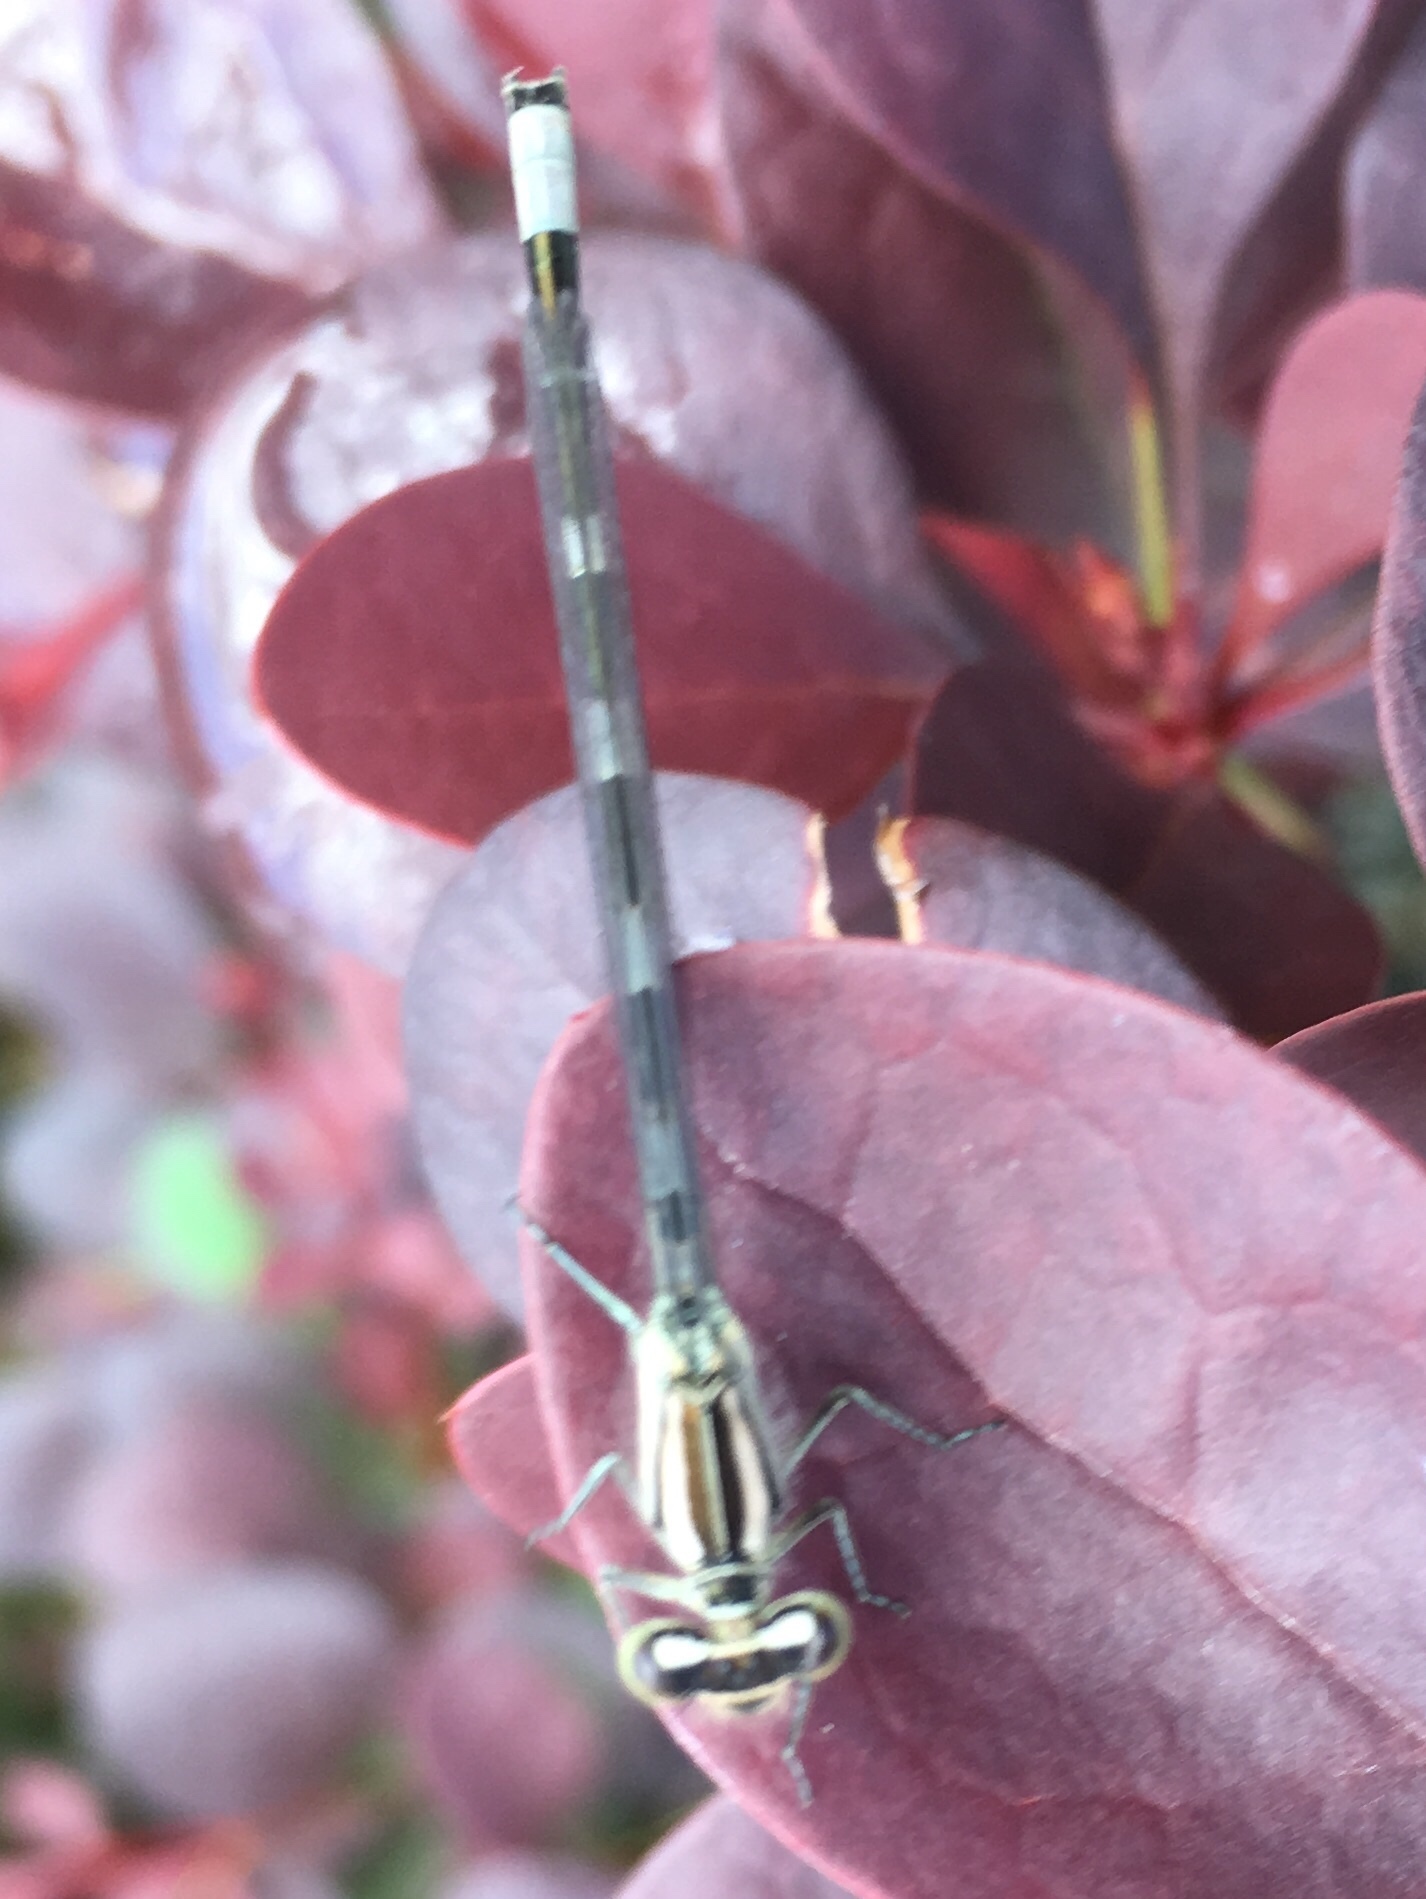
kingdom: Animalia
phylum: Arthropoda
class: Insecta
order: Odonata
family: Coenagrionidae
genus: Enallagma
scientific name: Enallagma carunculatum
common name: Tule bluet
